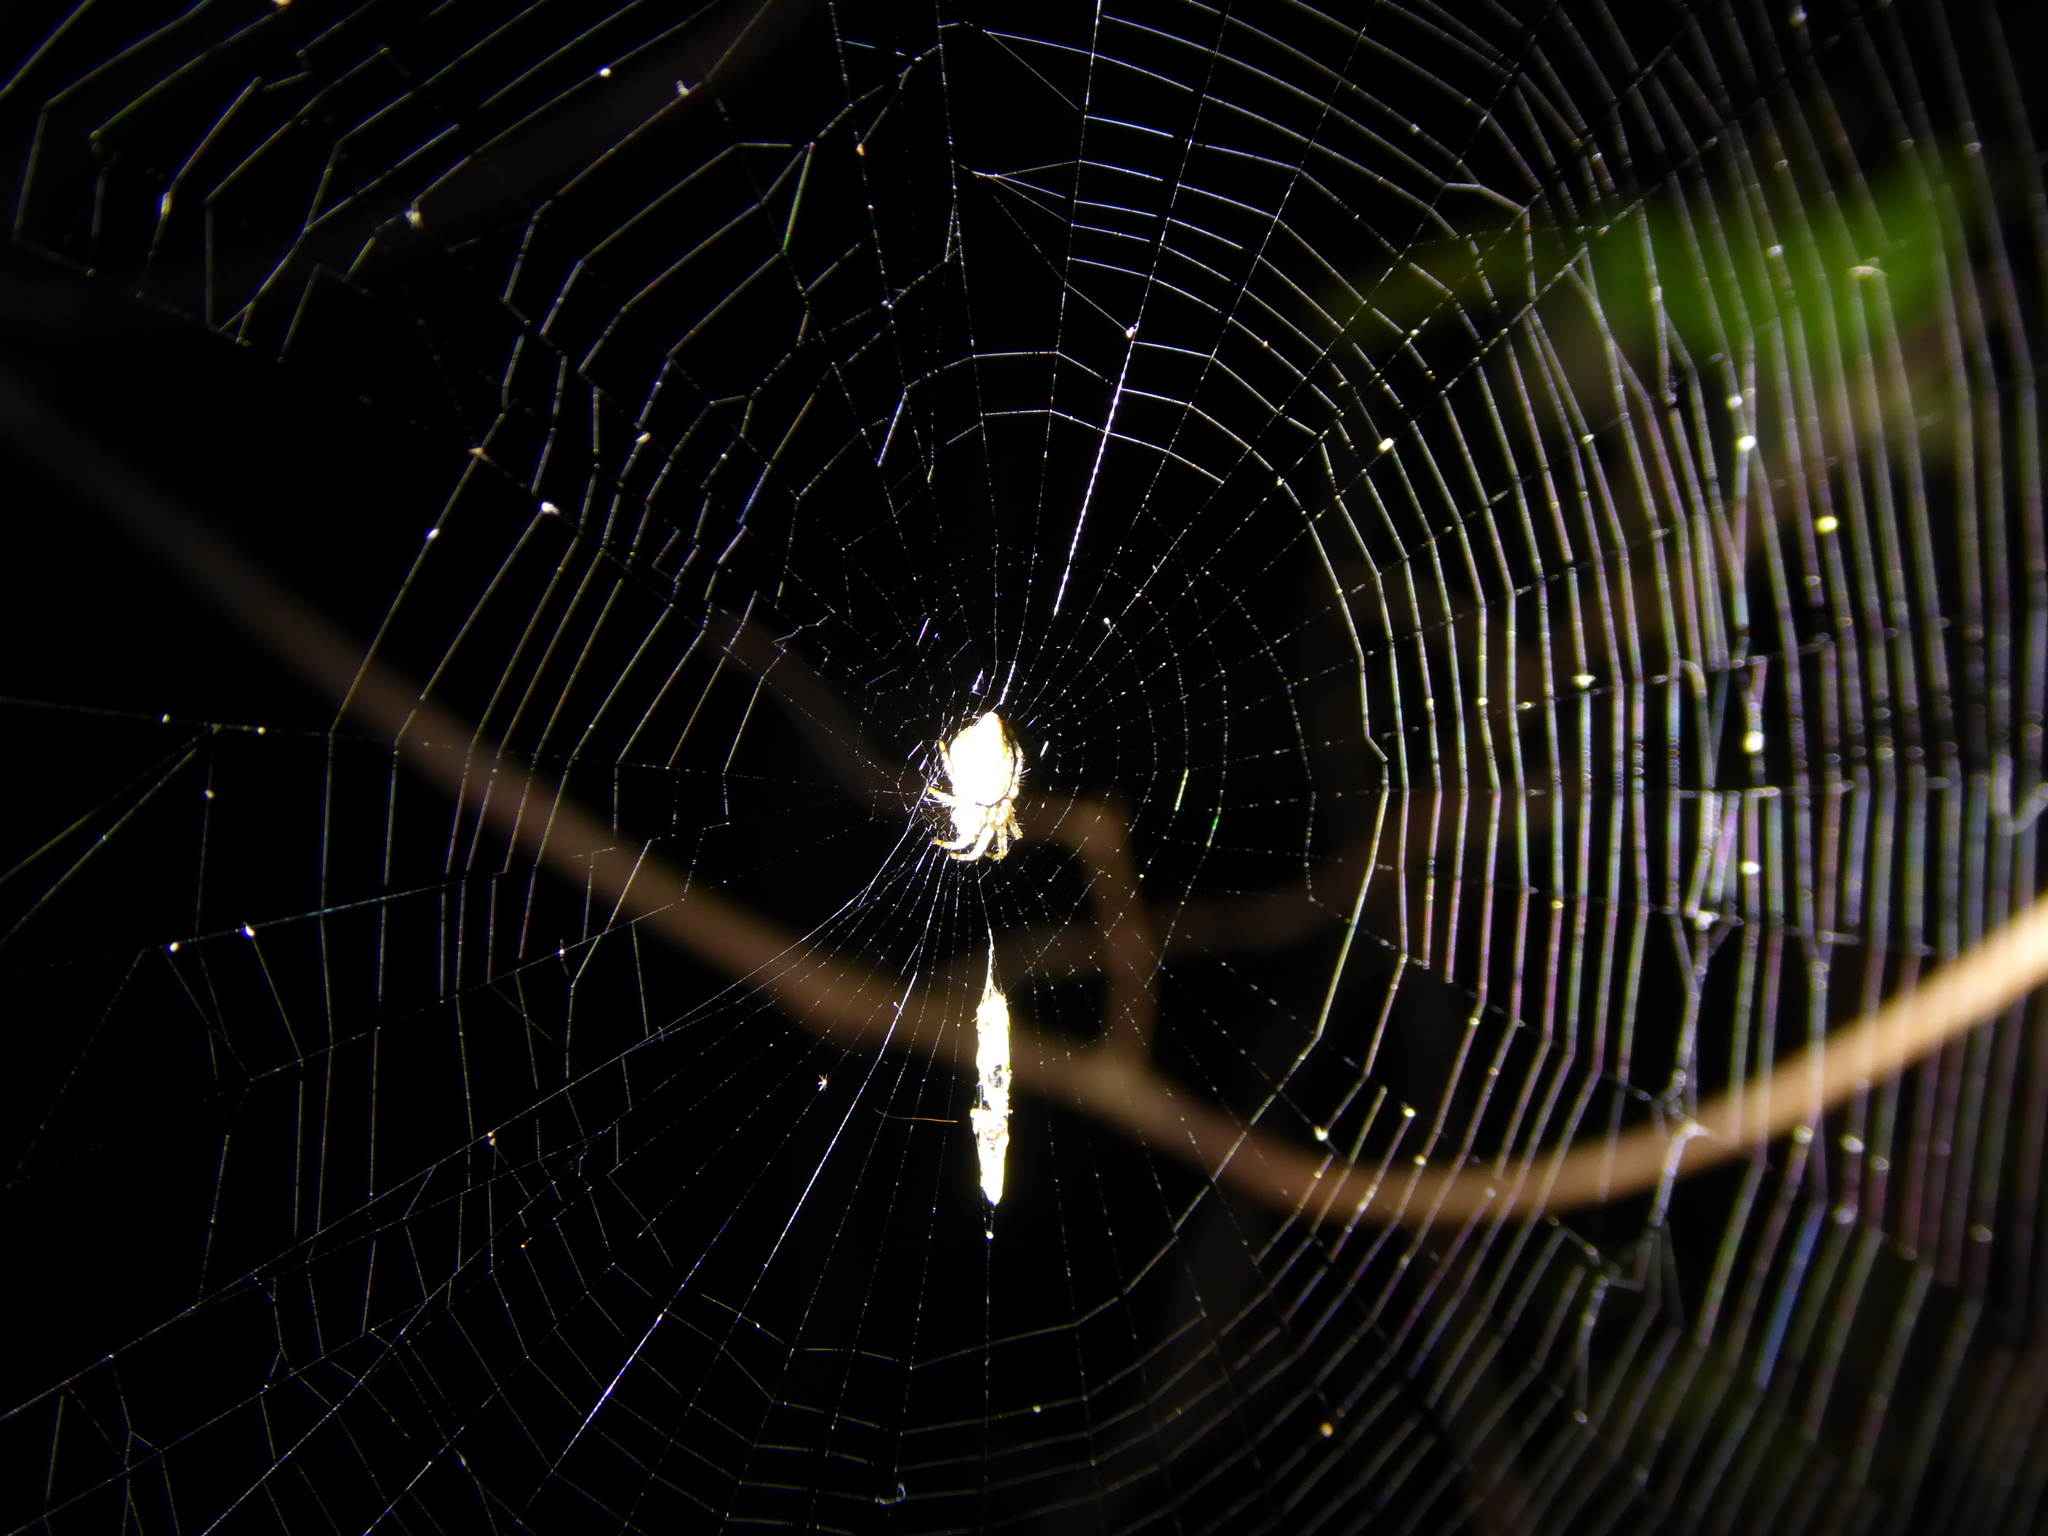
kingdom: Animalia
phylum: Arthropoda
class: Arachnida
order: Araneae
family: Araneidae
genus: Cyclosa
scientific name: Cyclosa conica
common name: Conical trashline orbweaver
